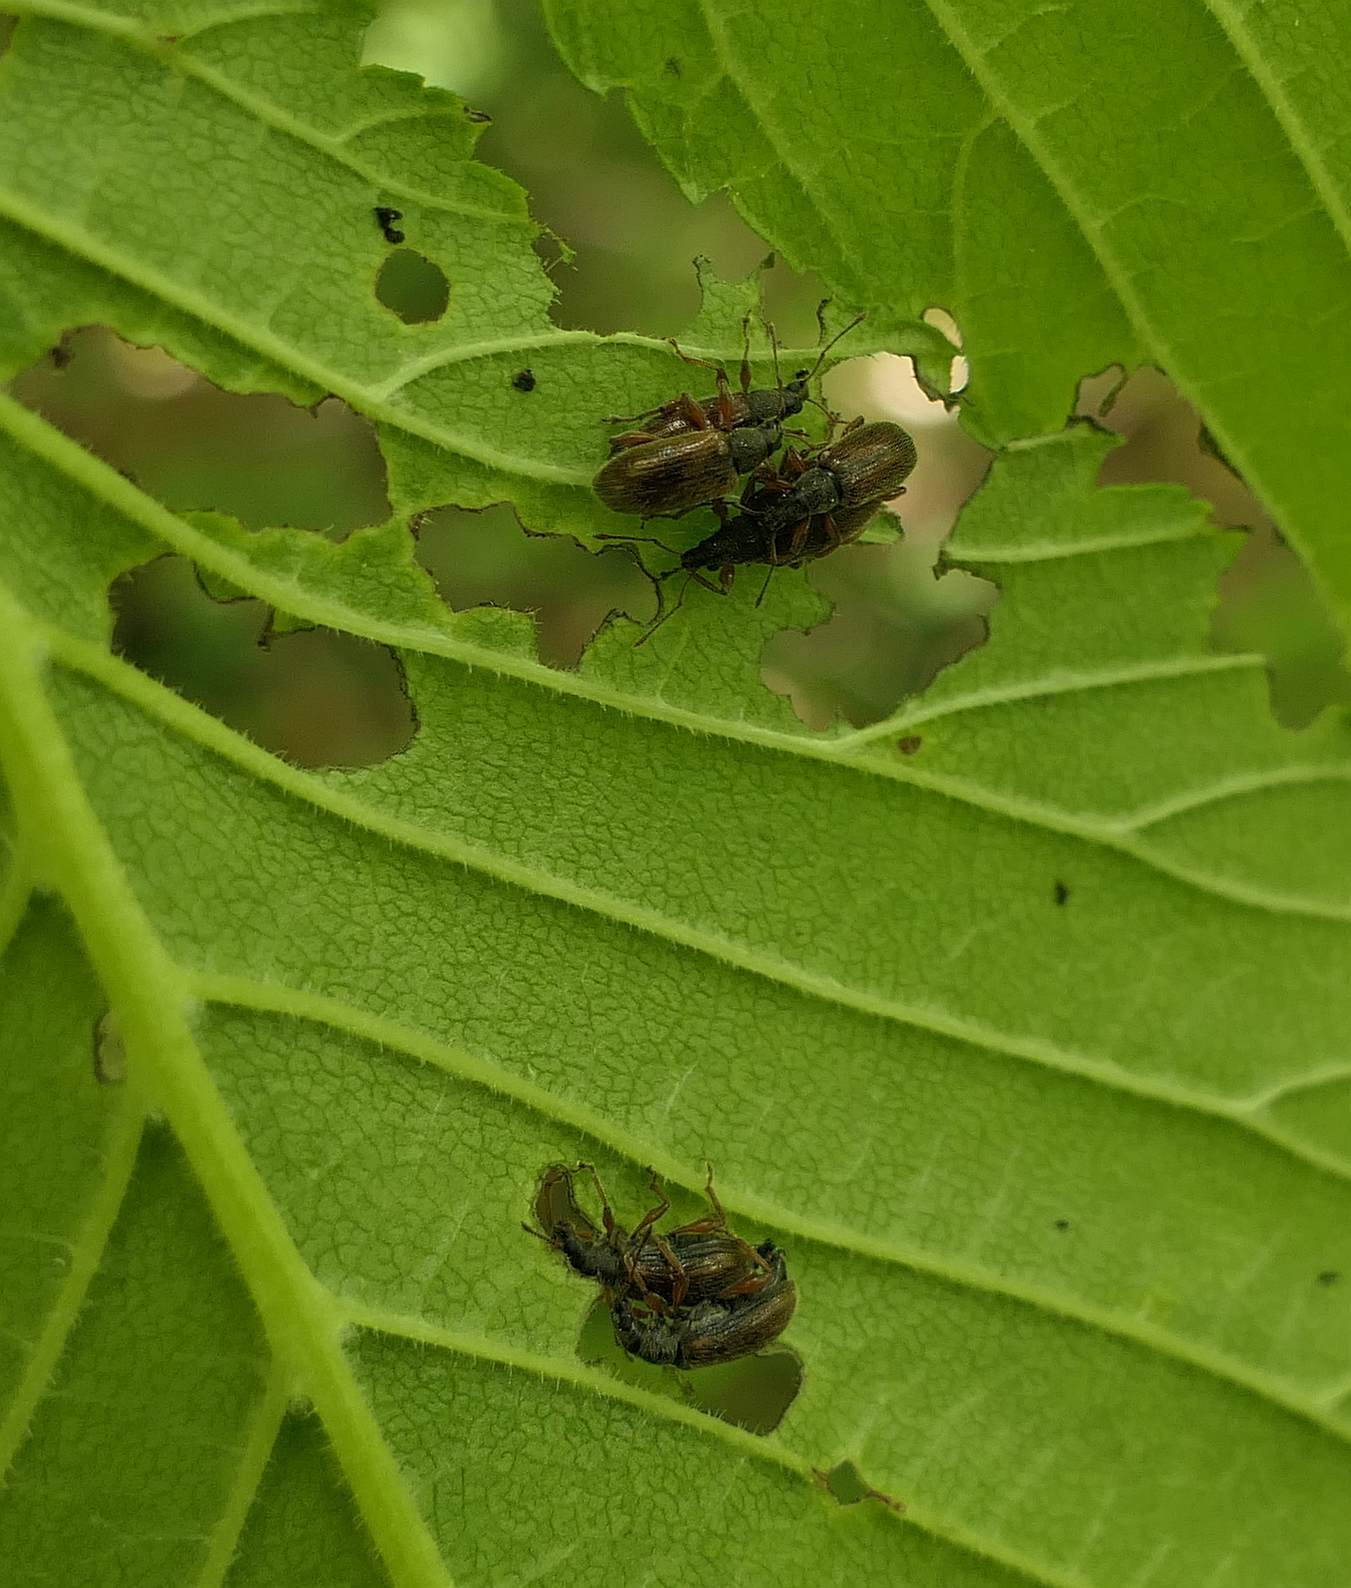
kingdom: Animalia
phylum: Arthropoda
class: Insecta
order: Coleoptera
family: Curculionidae
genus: Phyllobius
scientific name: Phyllobius oblongus
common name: Brown leaf weevil
